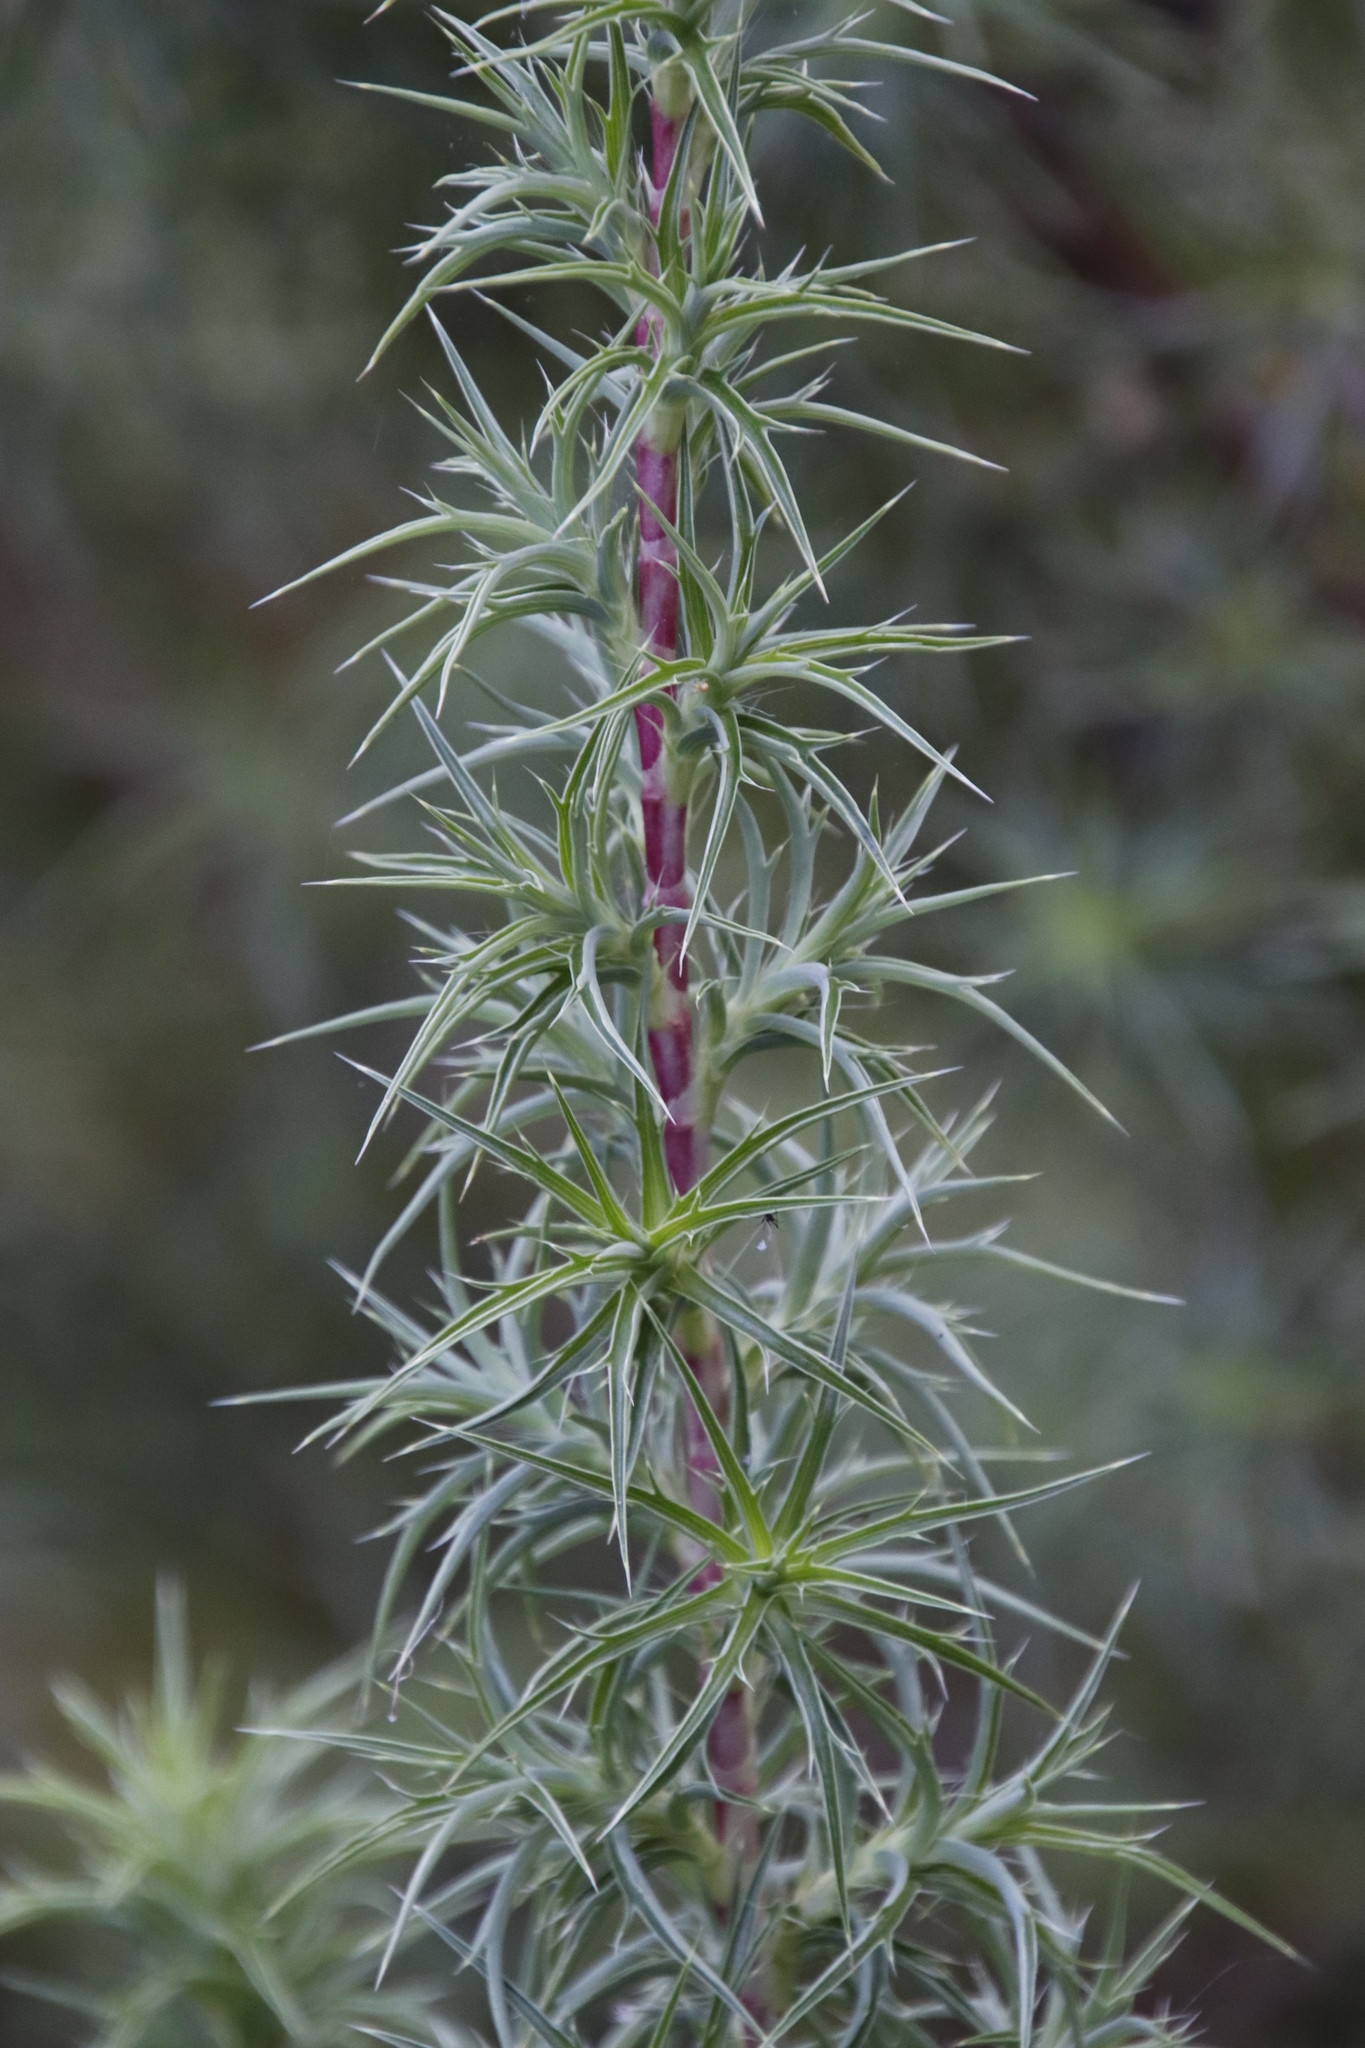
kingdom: Plantae
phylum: Tracheophyta
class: Magnoliopsida
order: Rosales
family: Rosaceae
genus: Cliffortia
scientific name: Cliffortia dregeana
